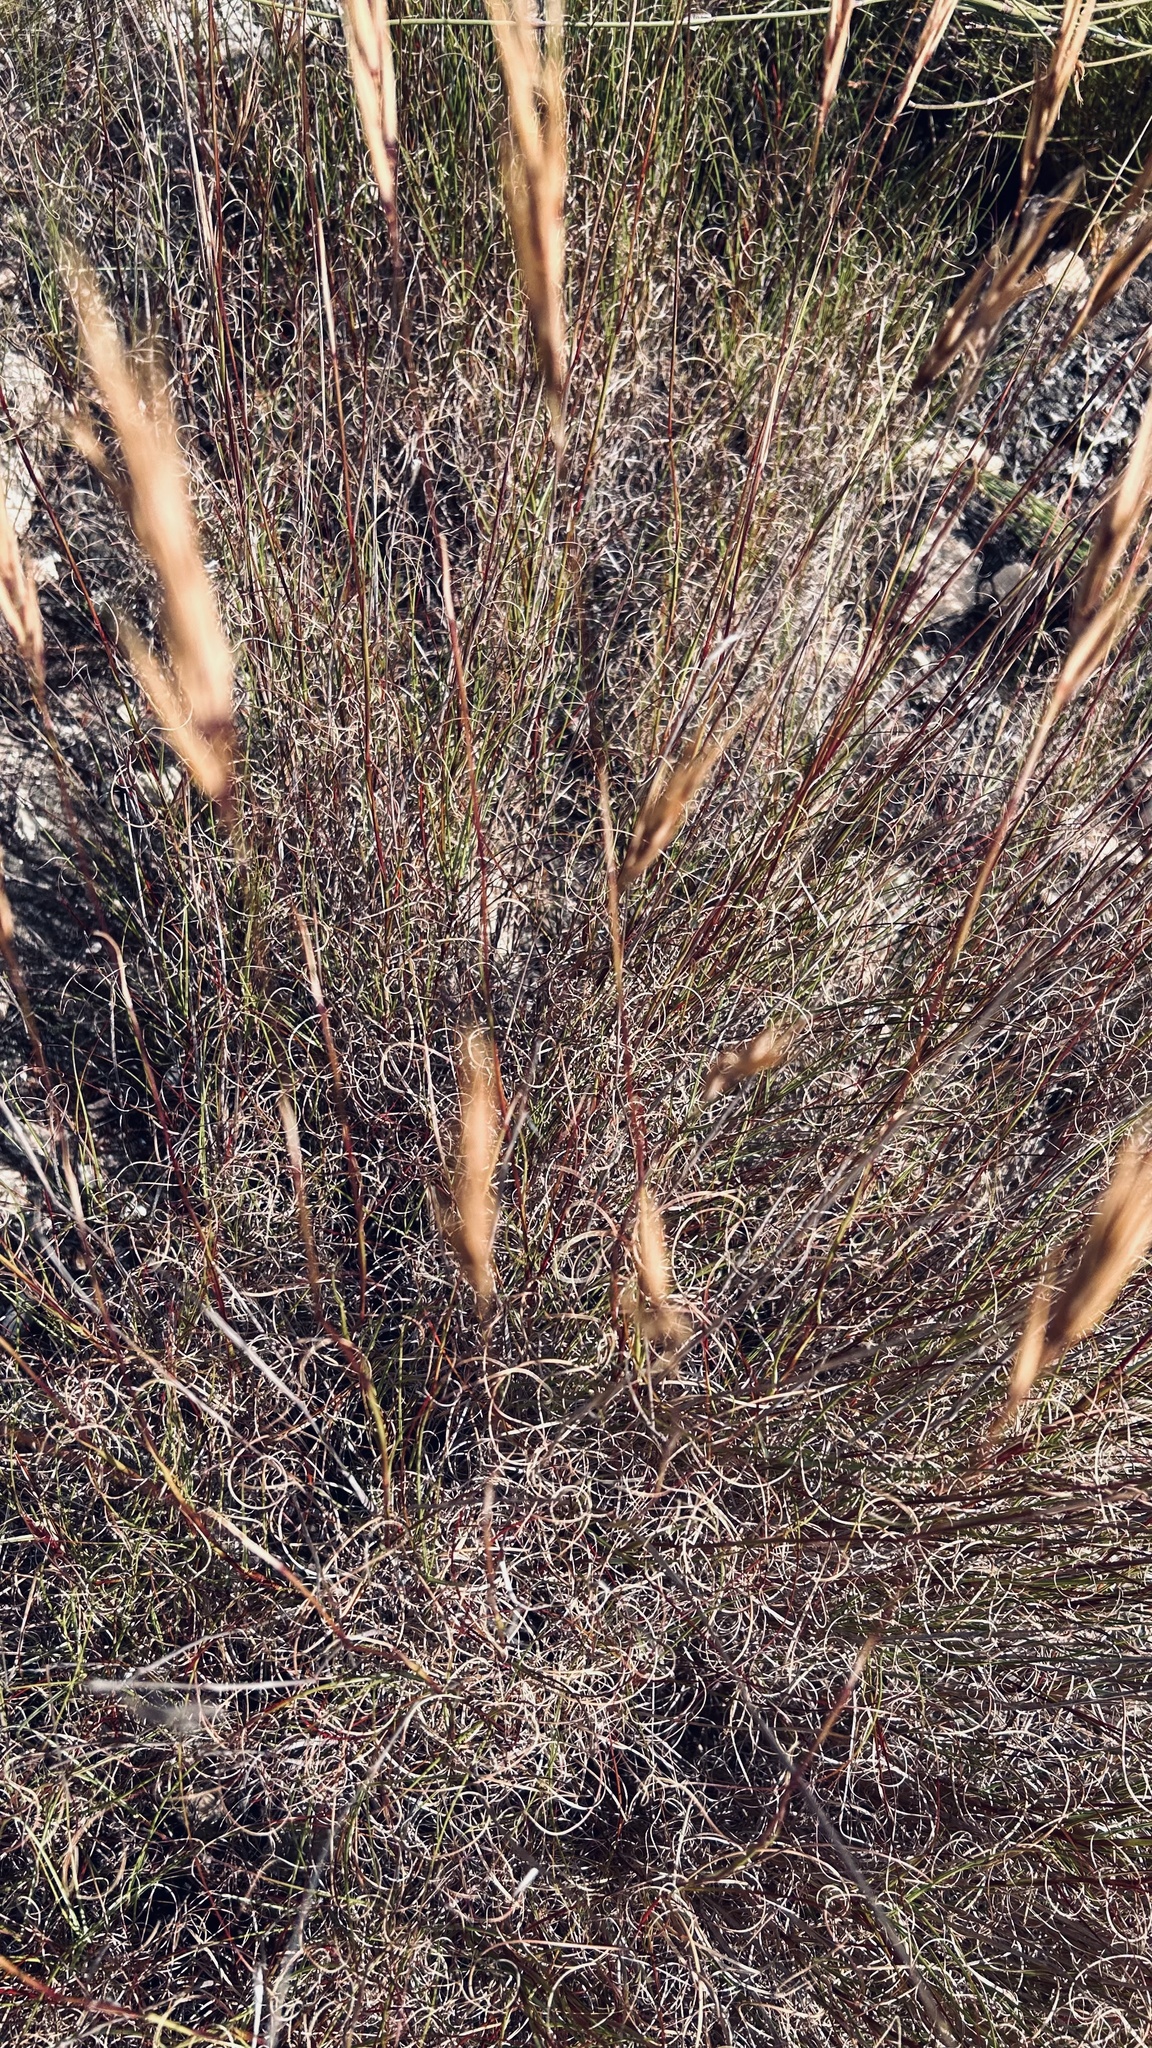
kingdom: Plantae
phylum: Tracheophyta
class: Liliopsida
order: Poales
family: Poaceae
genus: Themeda
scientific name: Themeda triandra
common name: Kangaroo grass
